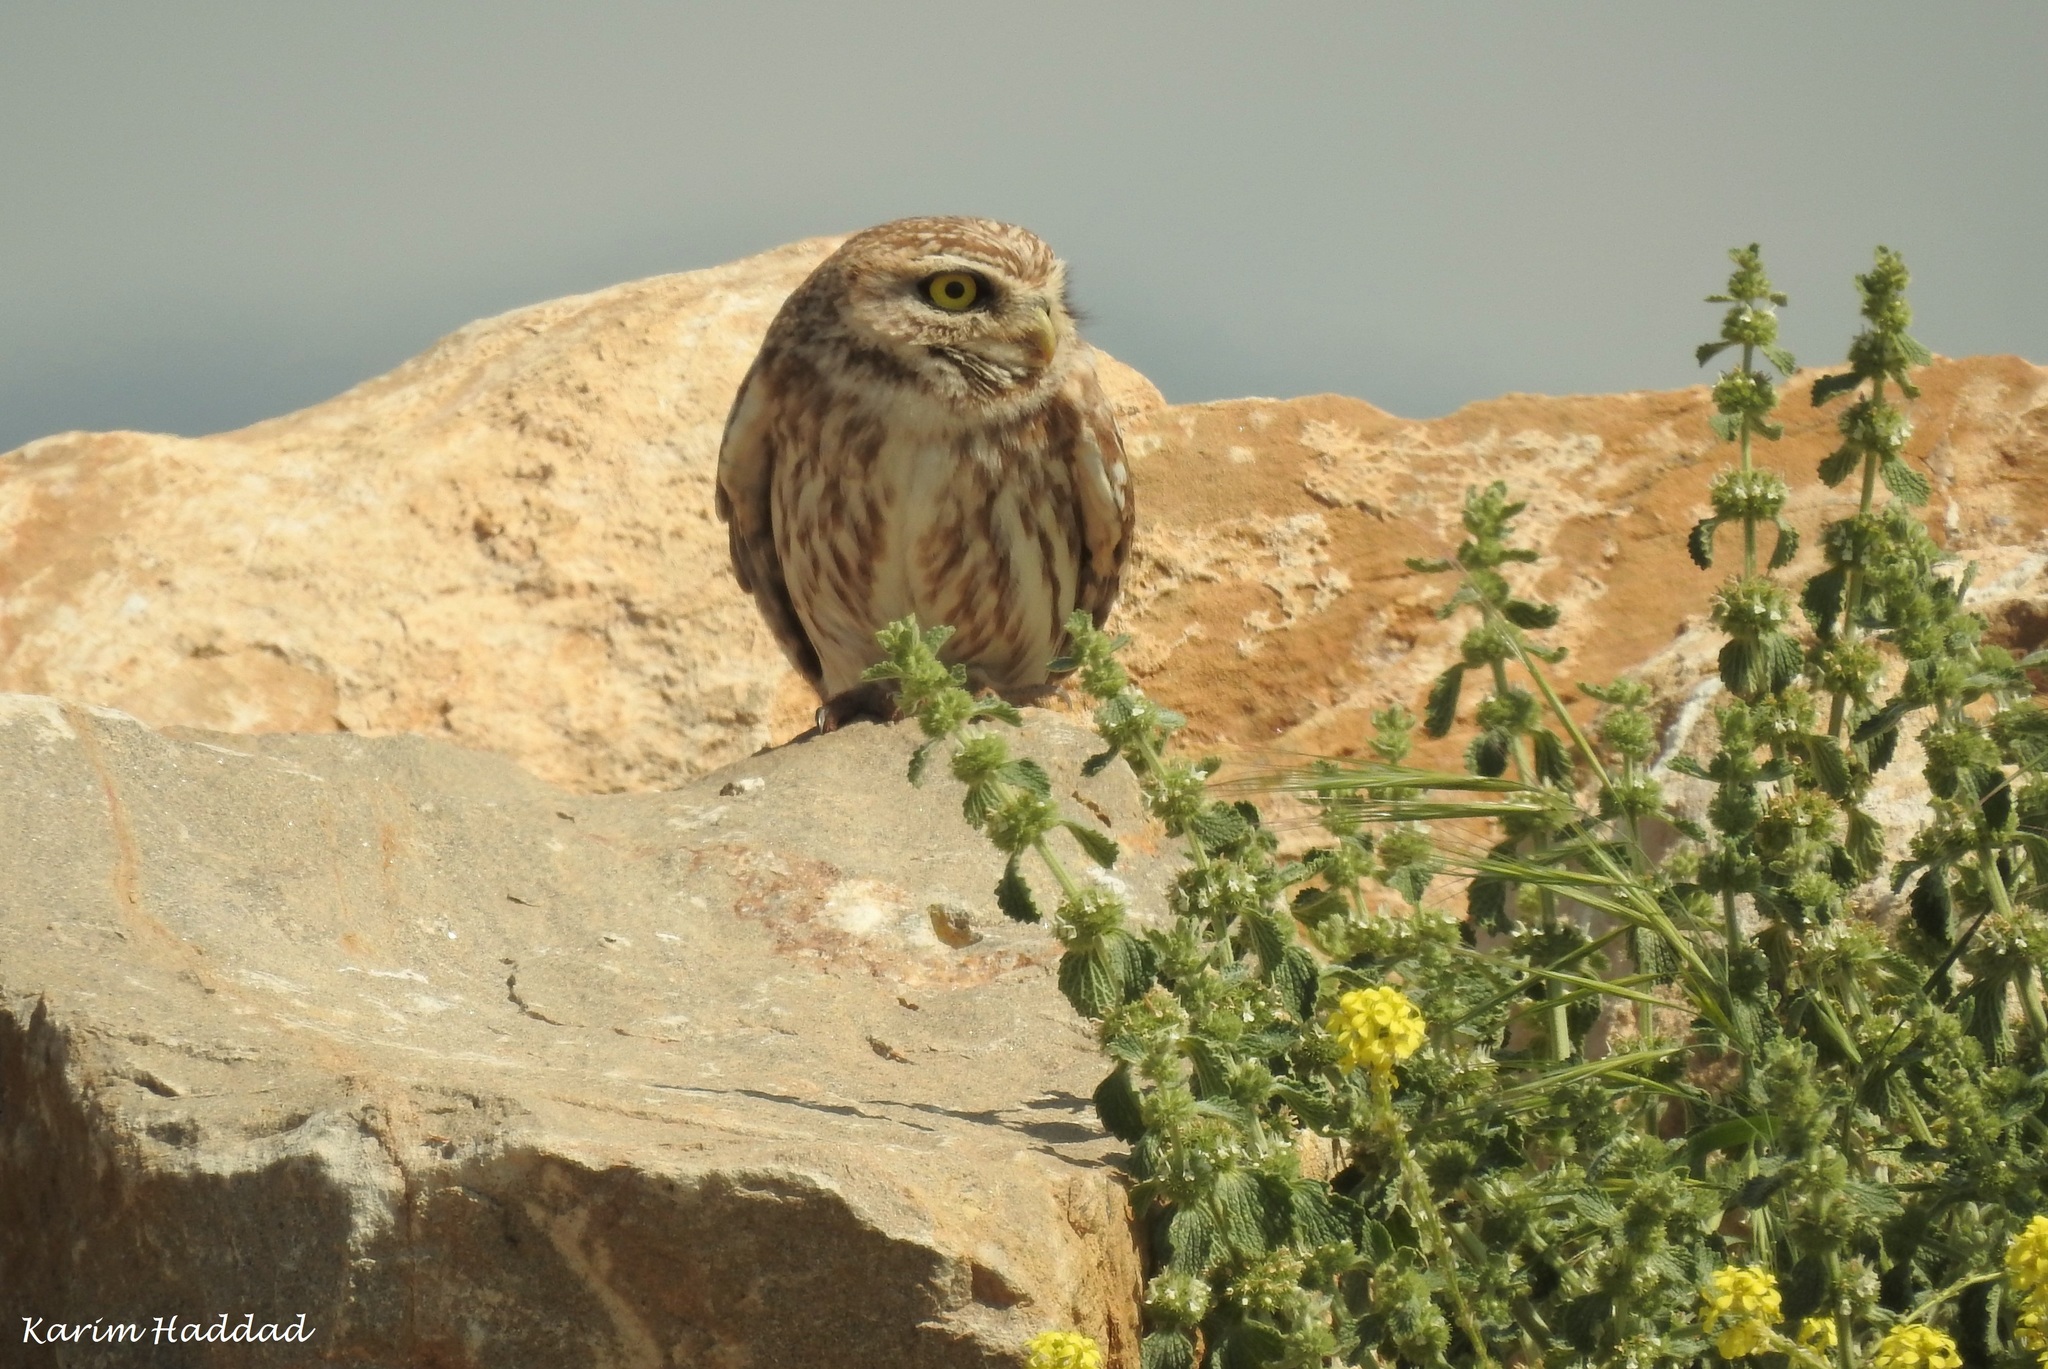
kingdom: Animalia
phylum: Chordata
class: Aves
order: Strigiformes
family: Strigidae
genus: Athene
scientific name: Athene noctua
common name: Little owl
